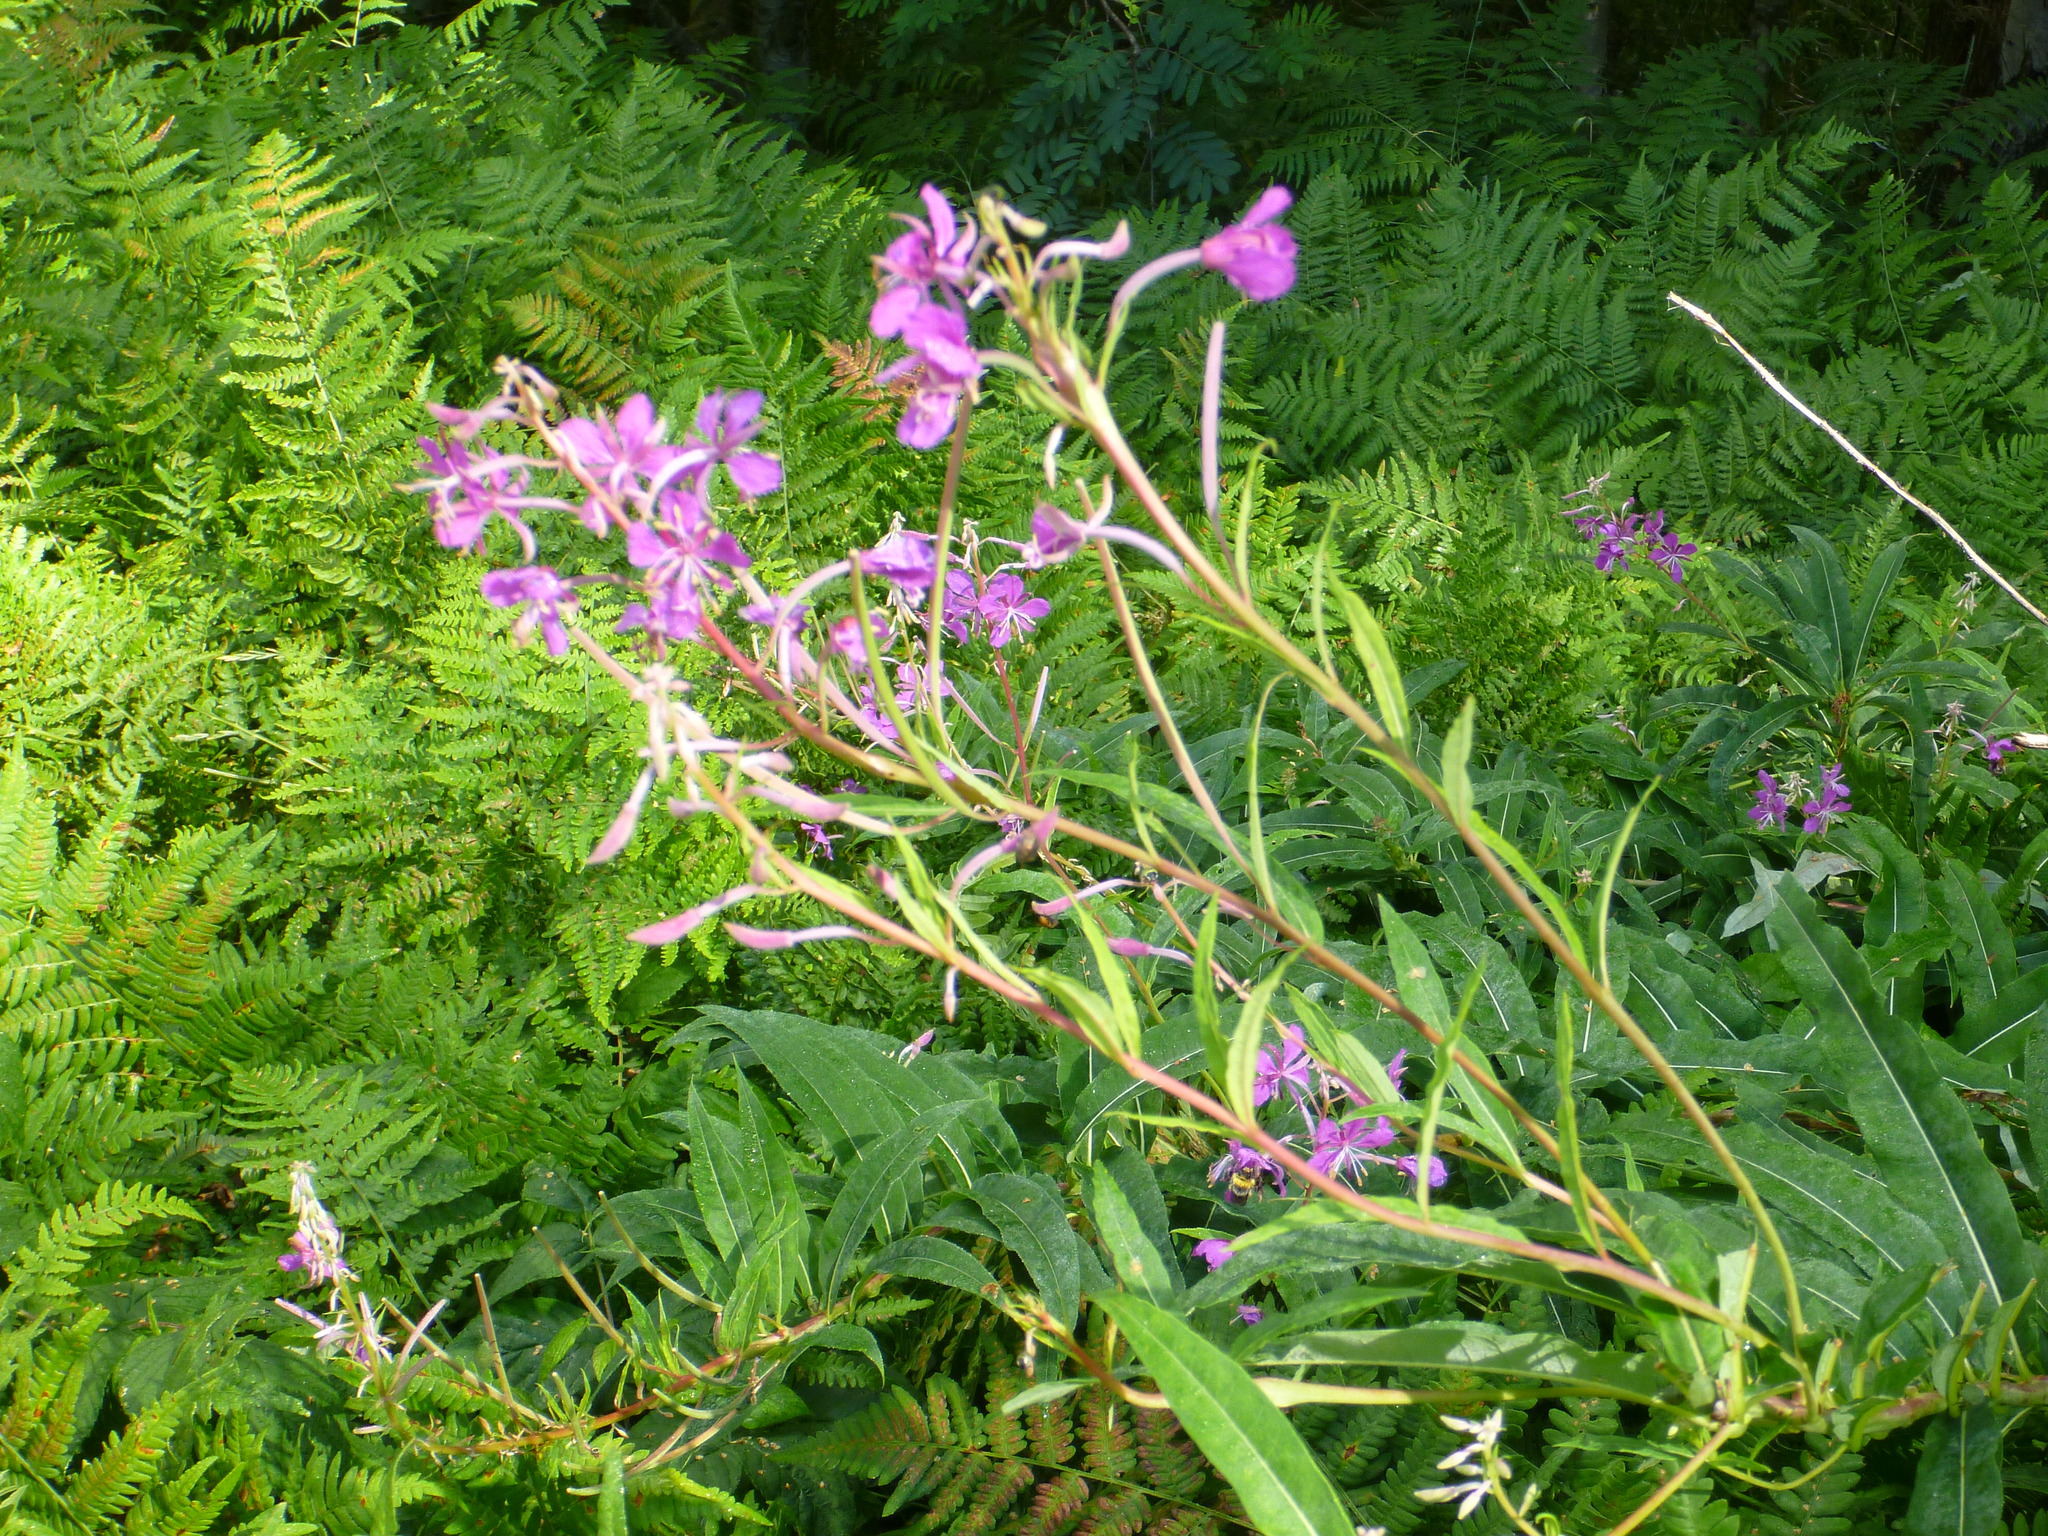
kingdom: Plantae
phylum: Tracheophyta
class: Magnoliopsida
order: Myrtales
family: Onagraceae
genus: Chamaenerion
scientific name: Chamaenerion angustifolium
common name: Fireweed
